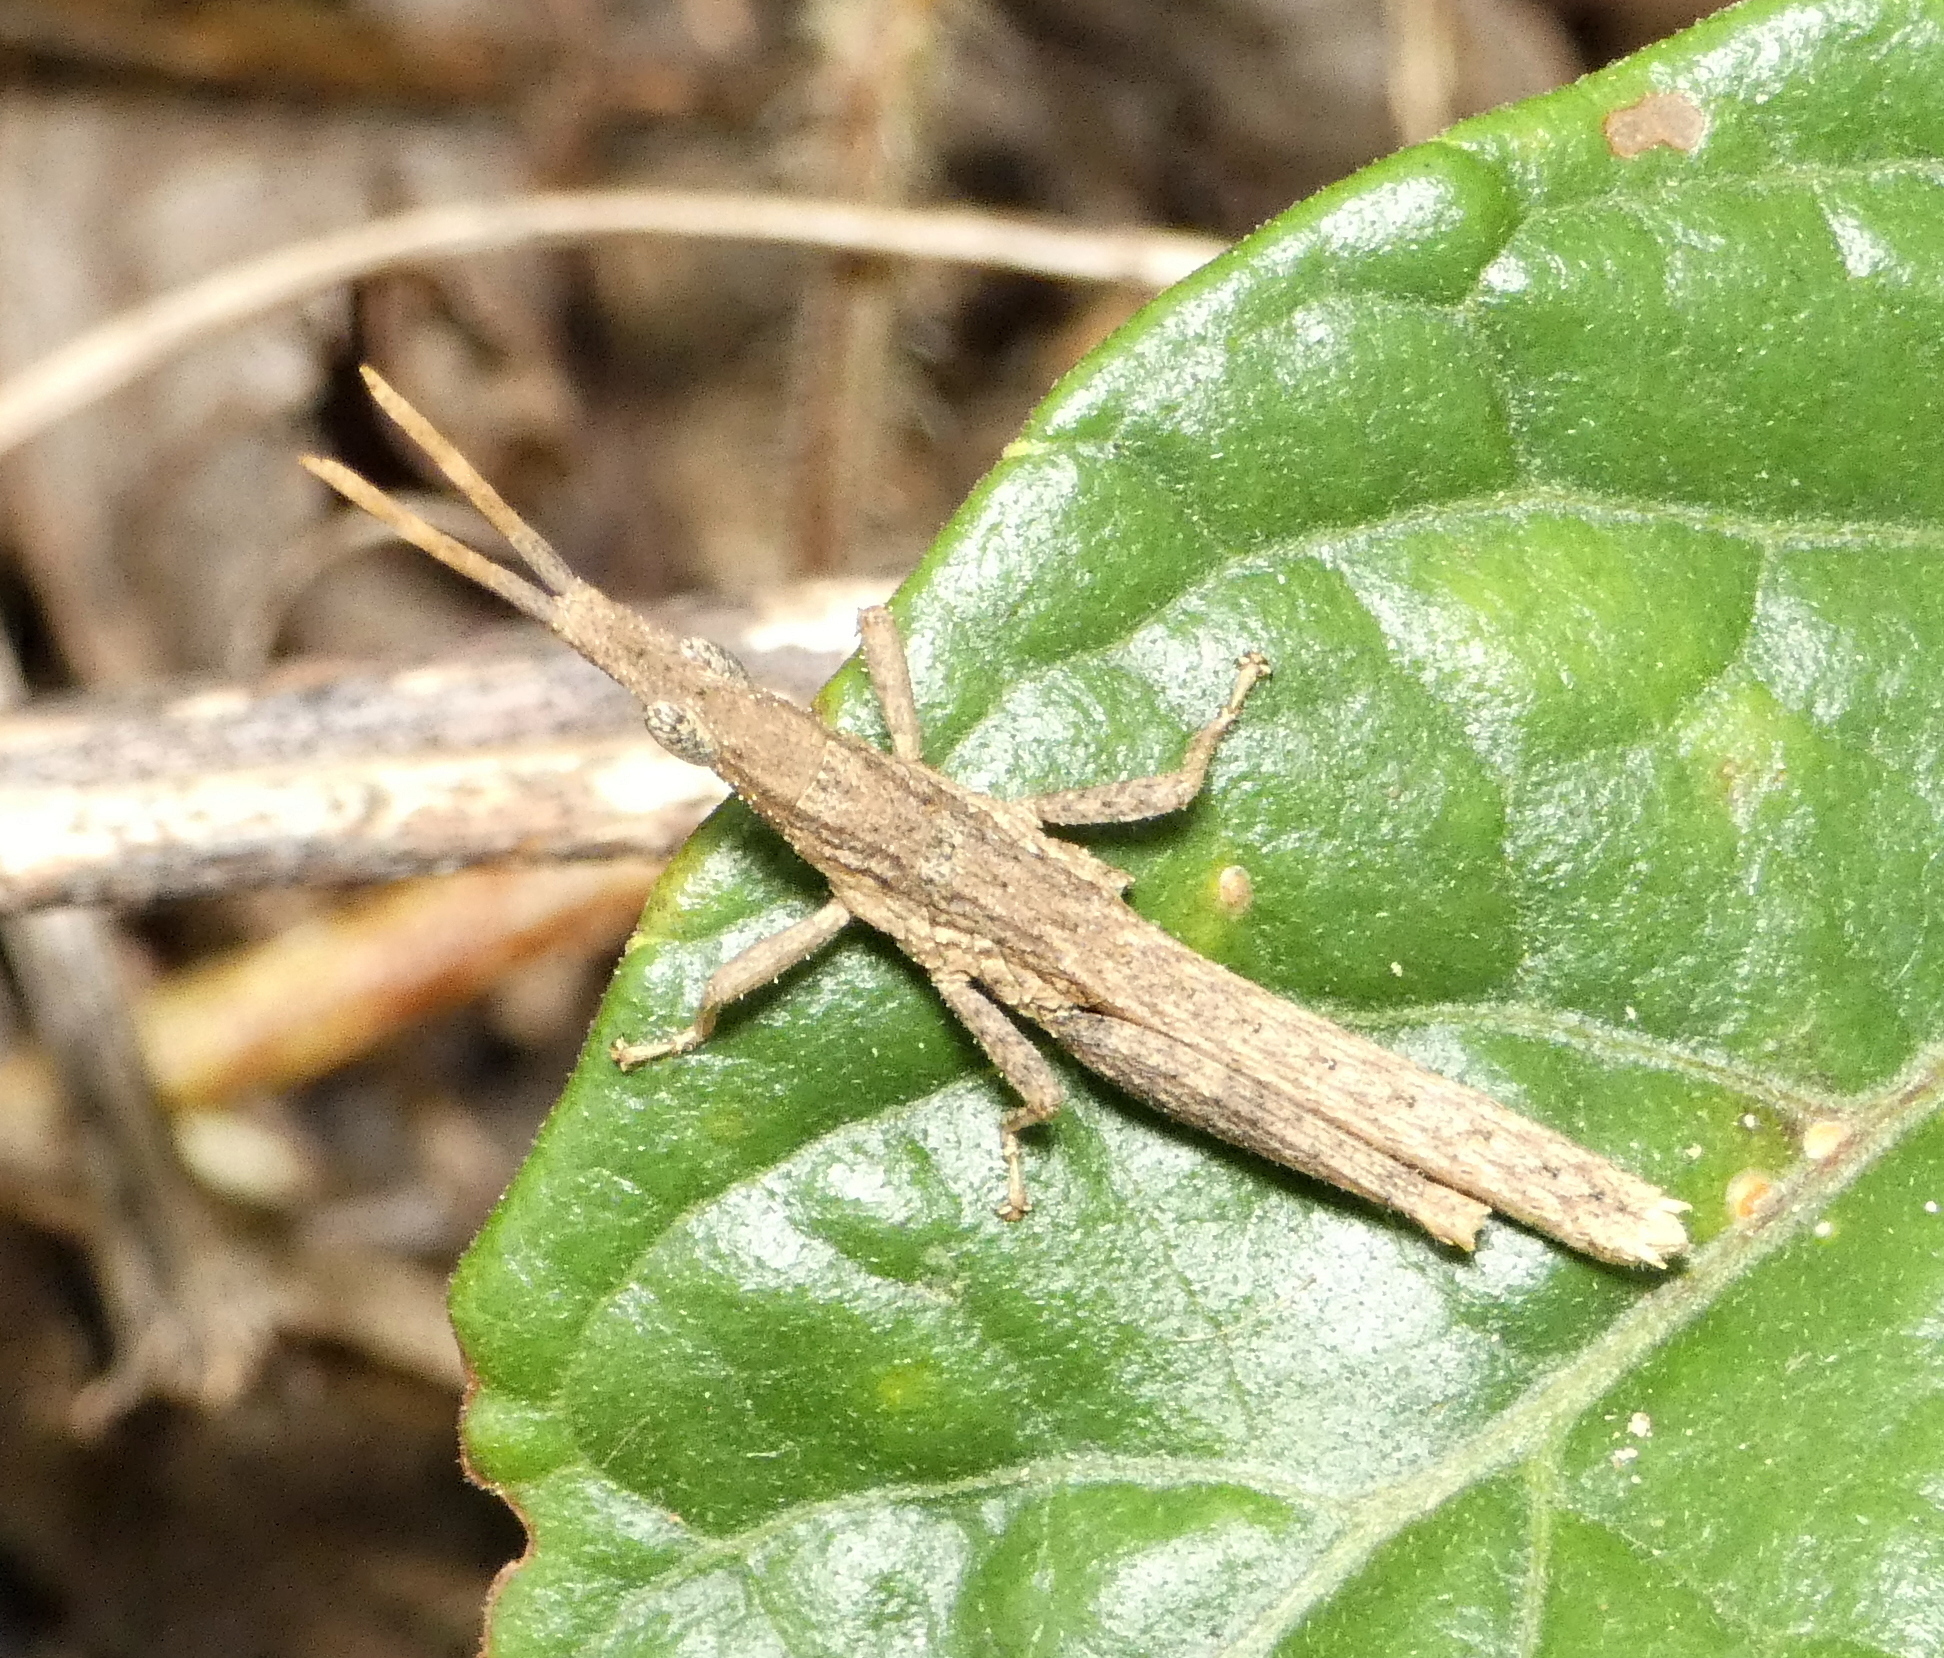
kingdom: Animalia
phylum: Arthropoda
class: Insecta
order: Orthoptera
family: Pyrgomorphidae
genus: Algete
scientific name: Algete brunneri
